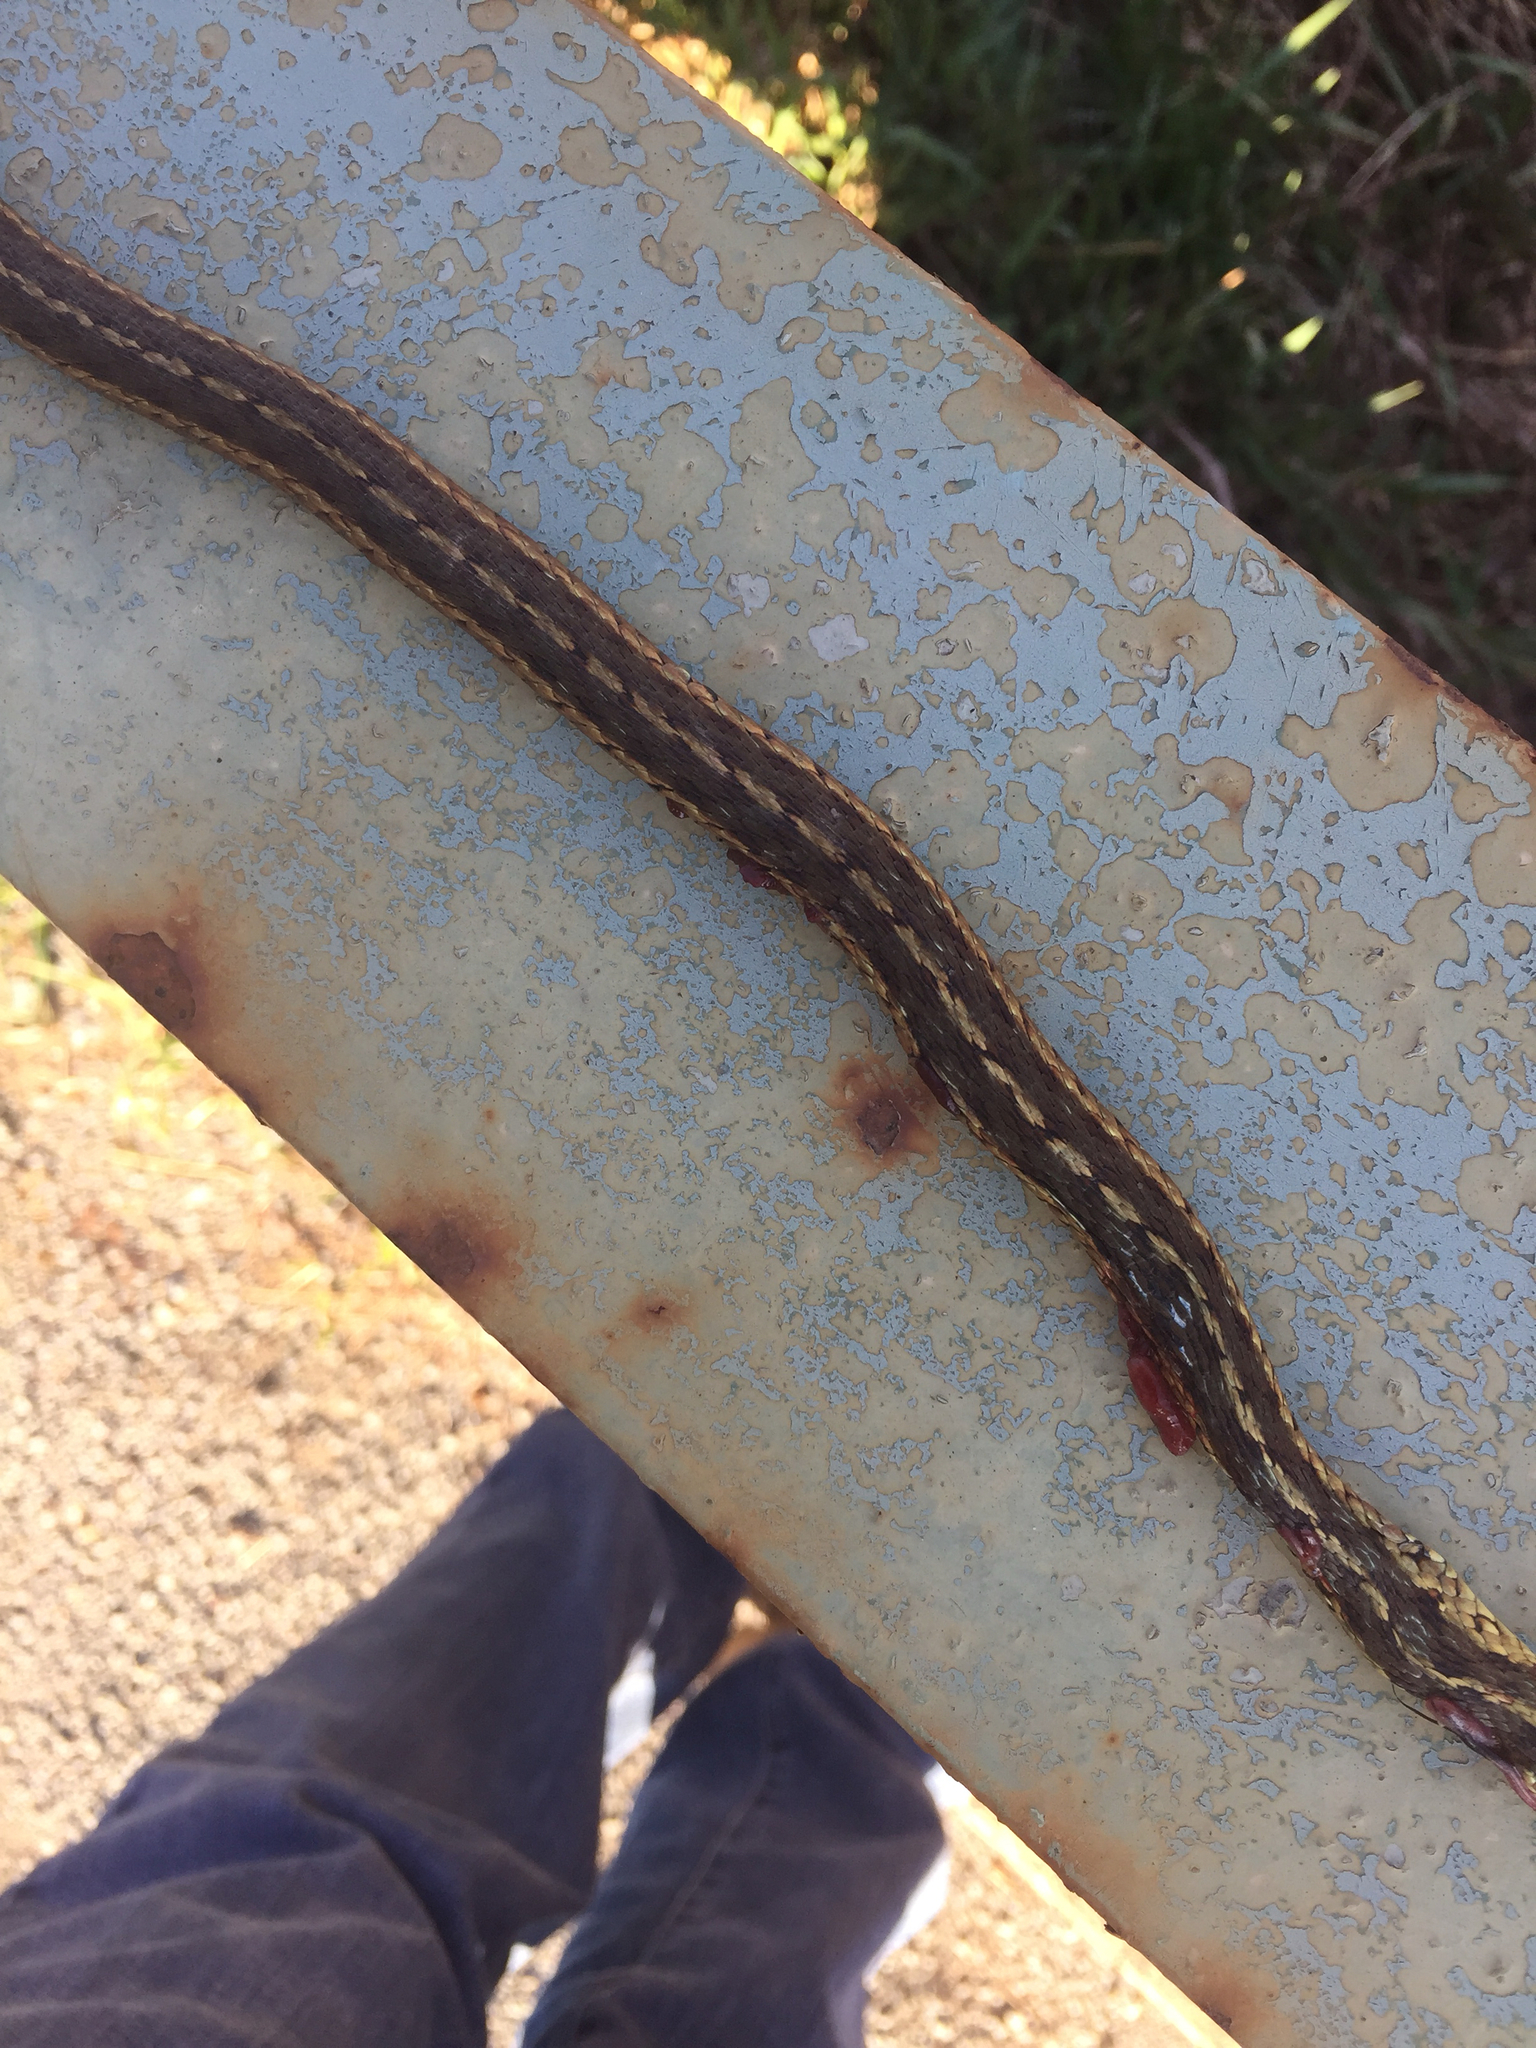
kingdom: Animalia
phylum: Chordata
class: Squamata
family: Colubridae
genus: Thamnophis
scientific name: Thamnophis sirtalis
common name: Common garter snake
